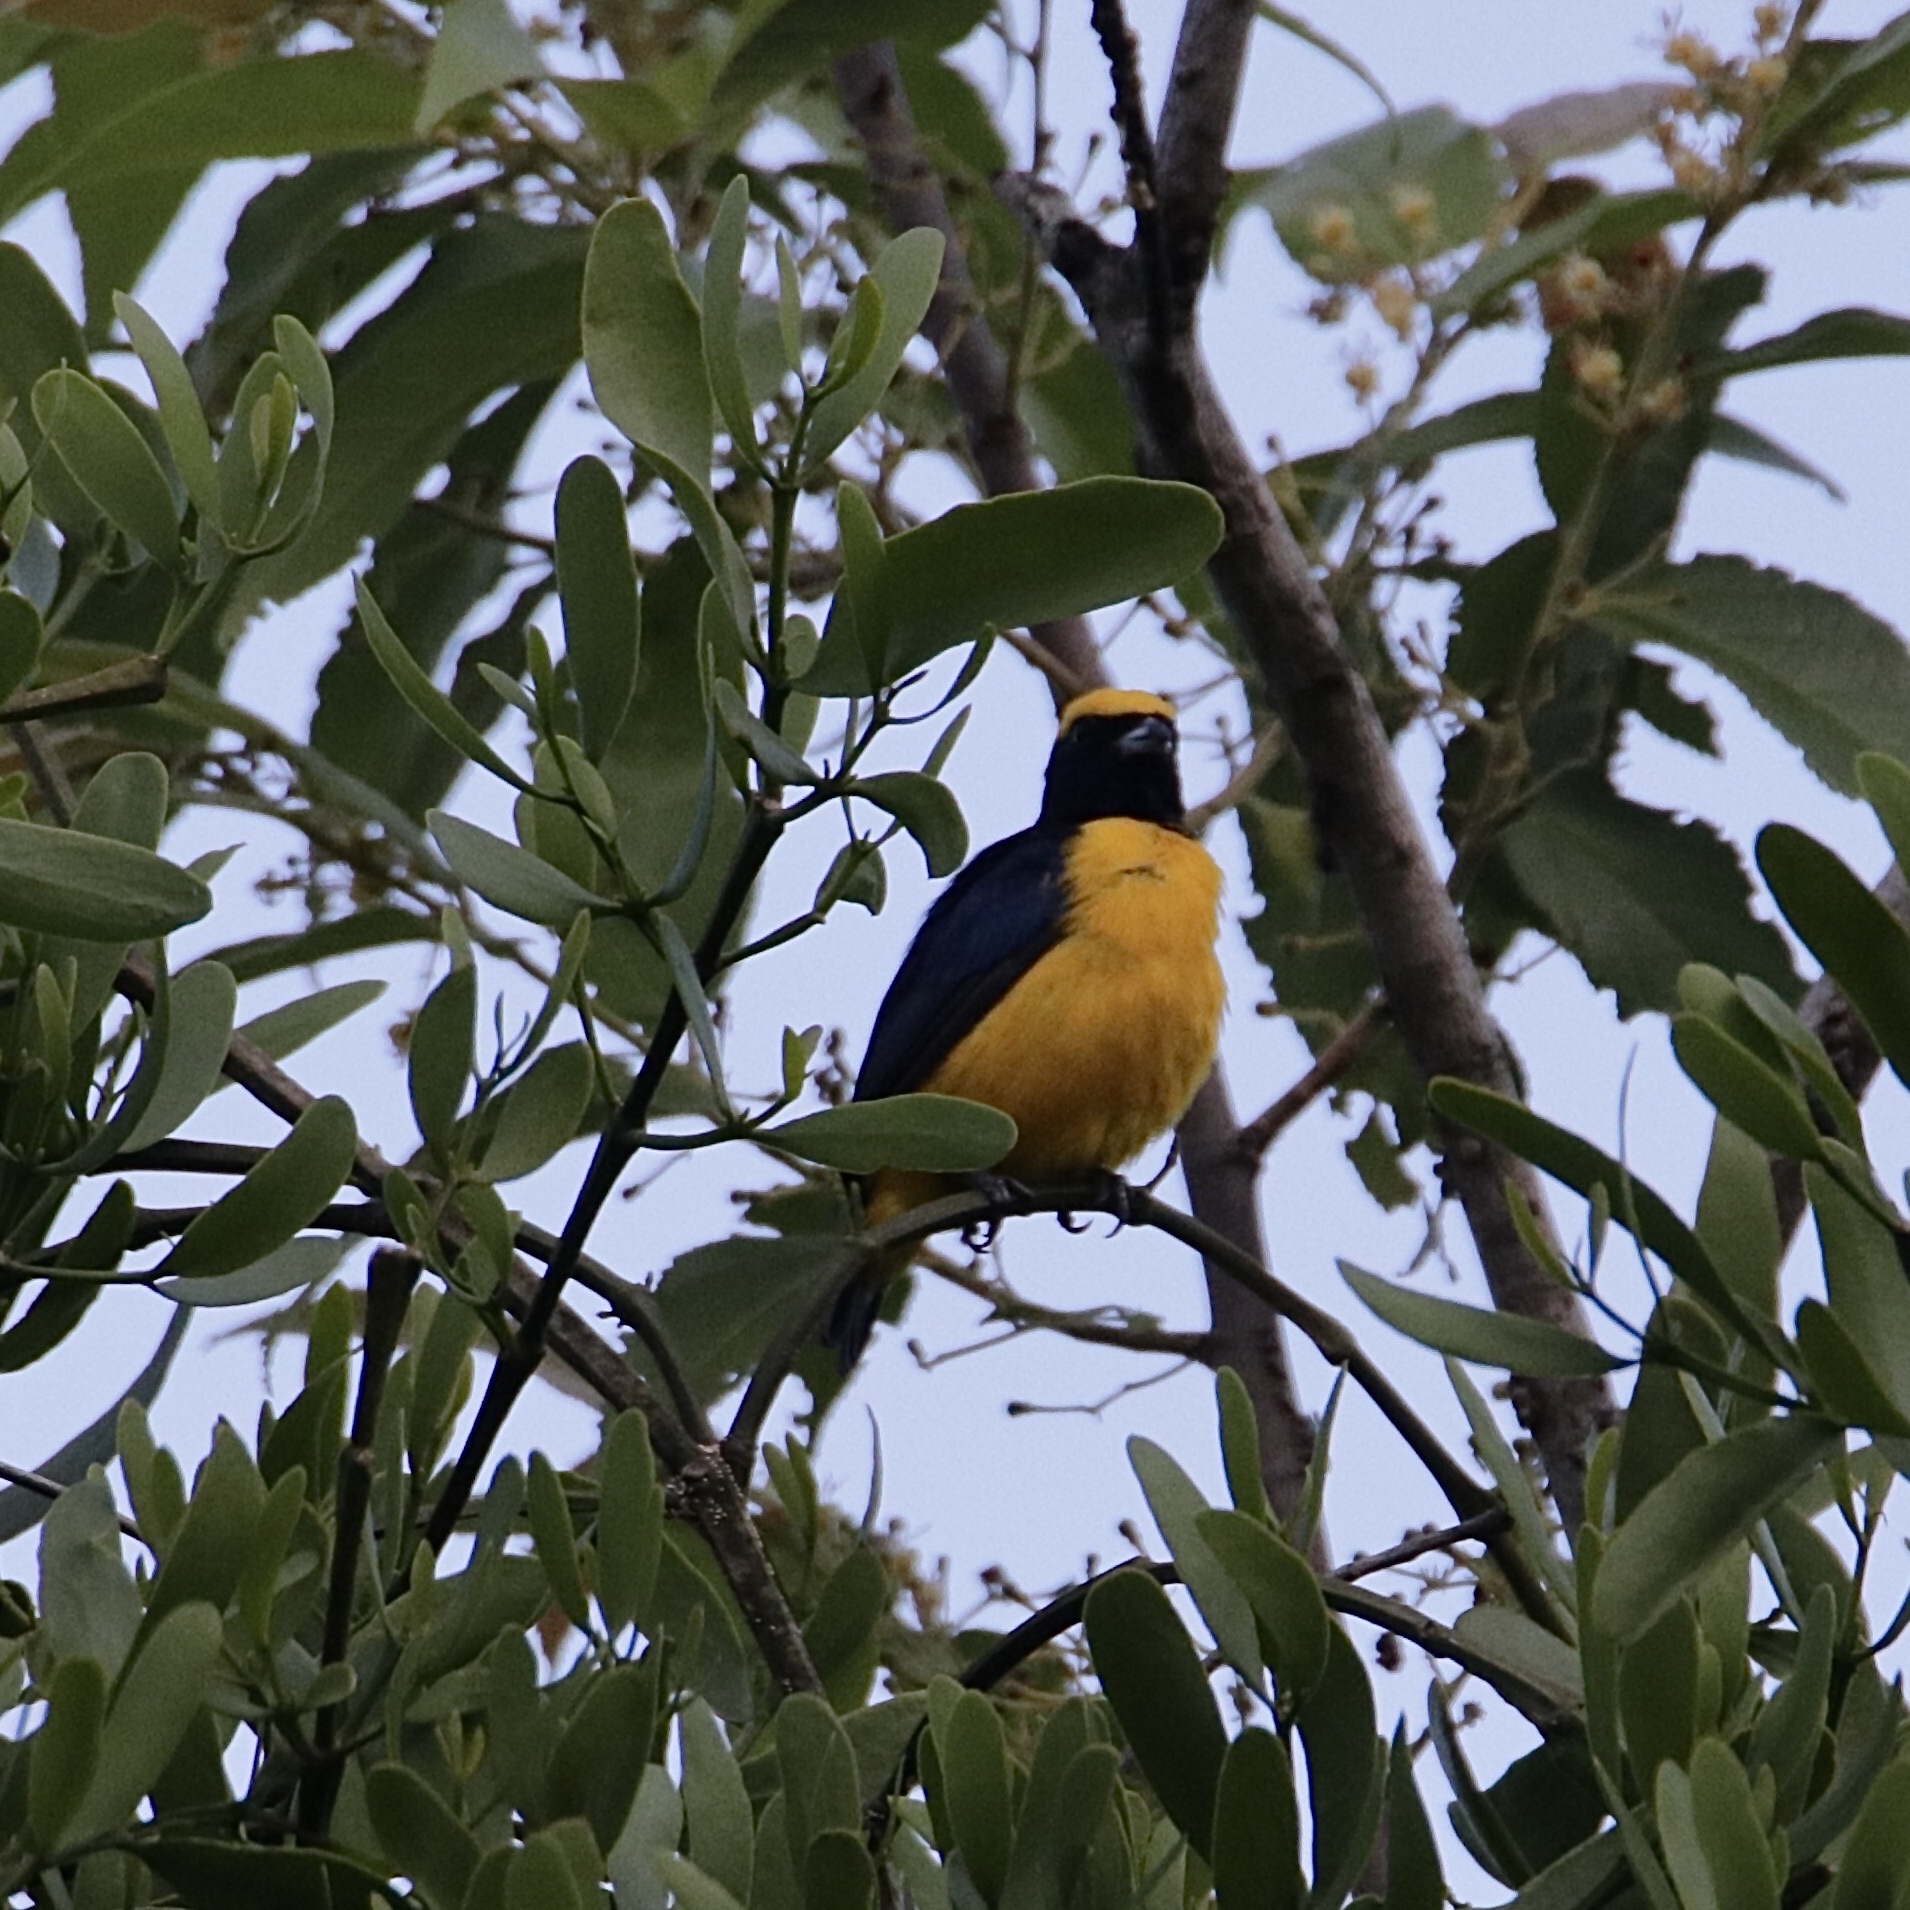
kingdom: Animalia
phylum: Chordata
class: Aves
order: Passeriformes
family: Fringillidae
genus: Euphonia
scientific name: Euphonia luteicapilla
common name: Yellow-crowned euphonia
